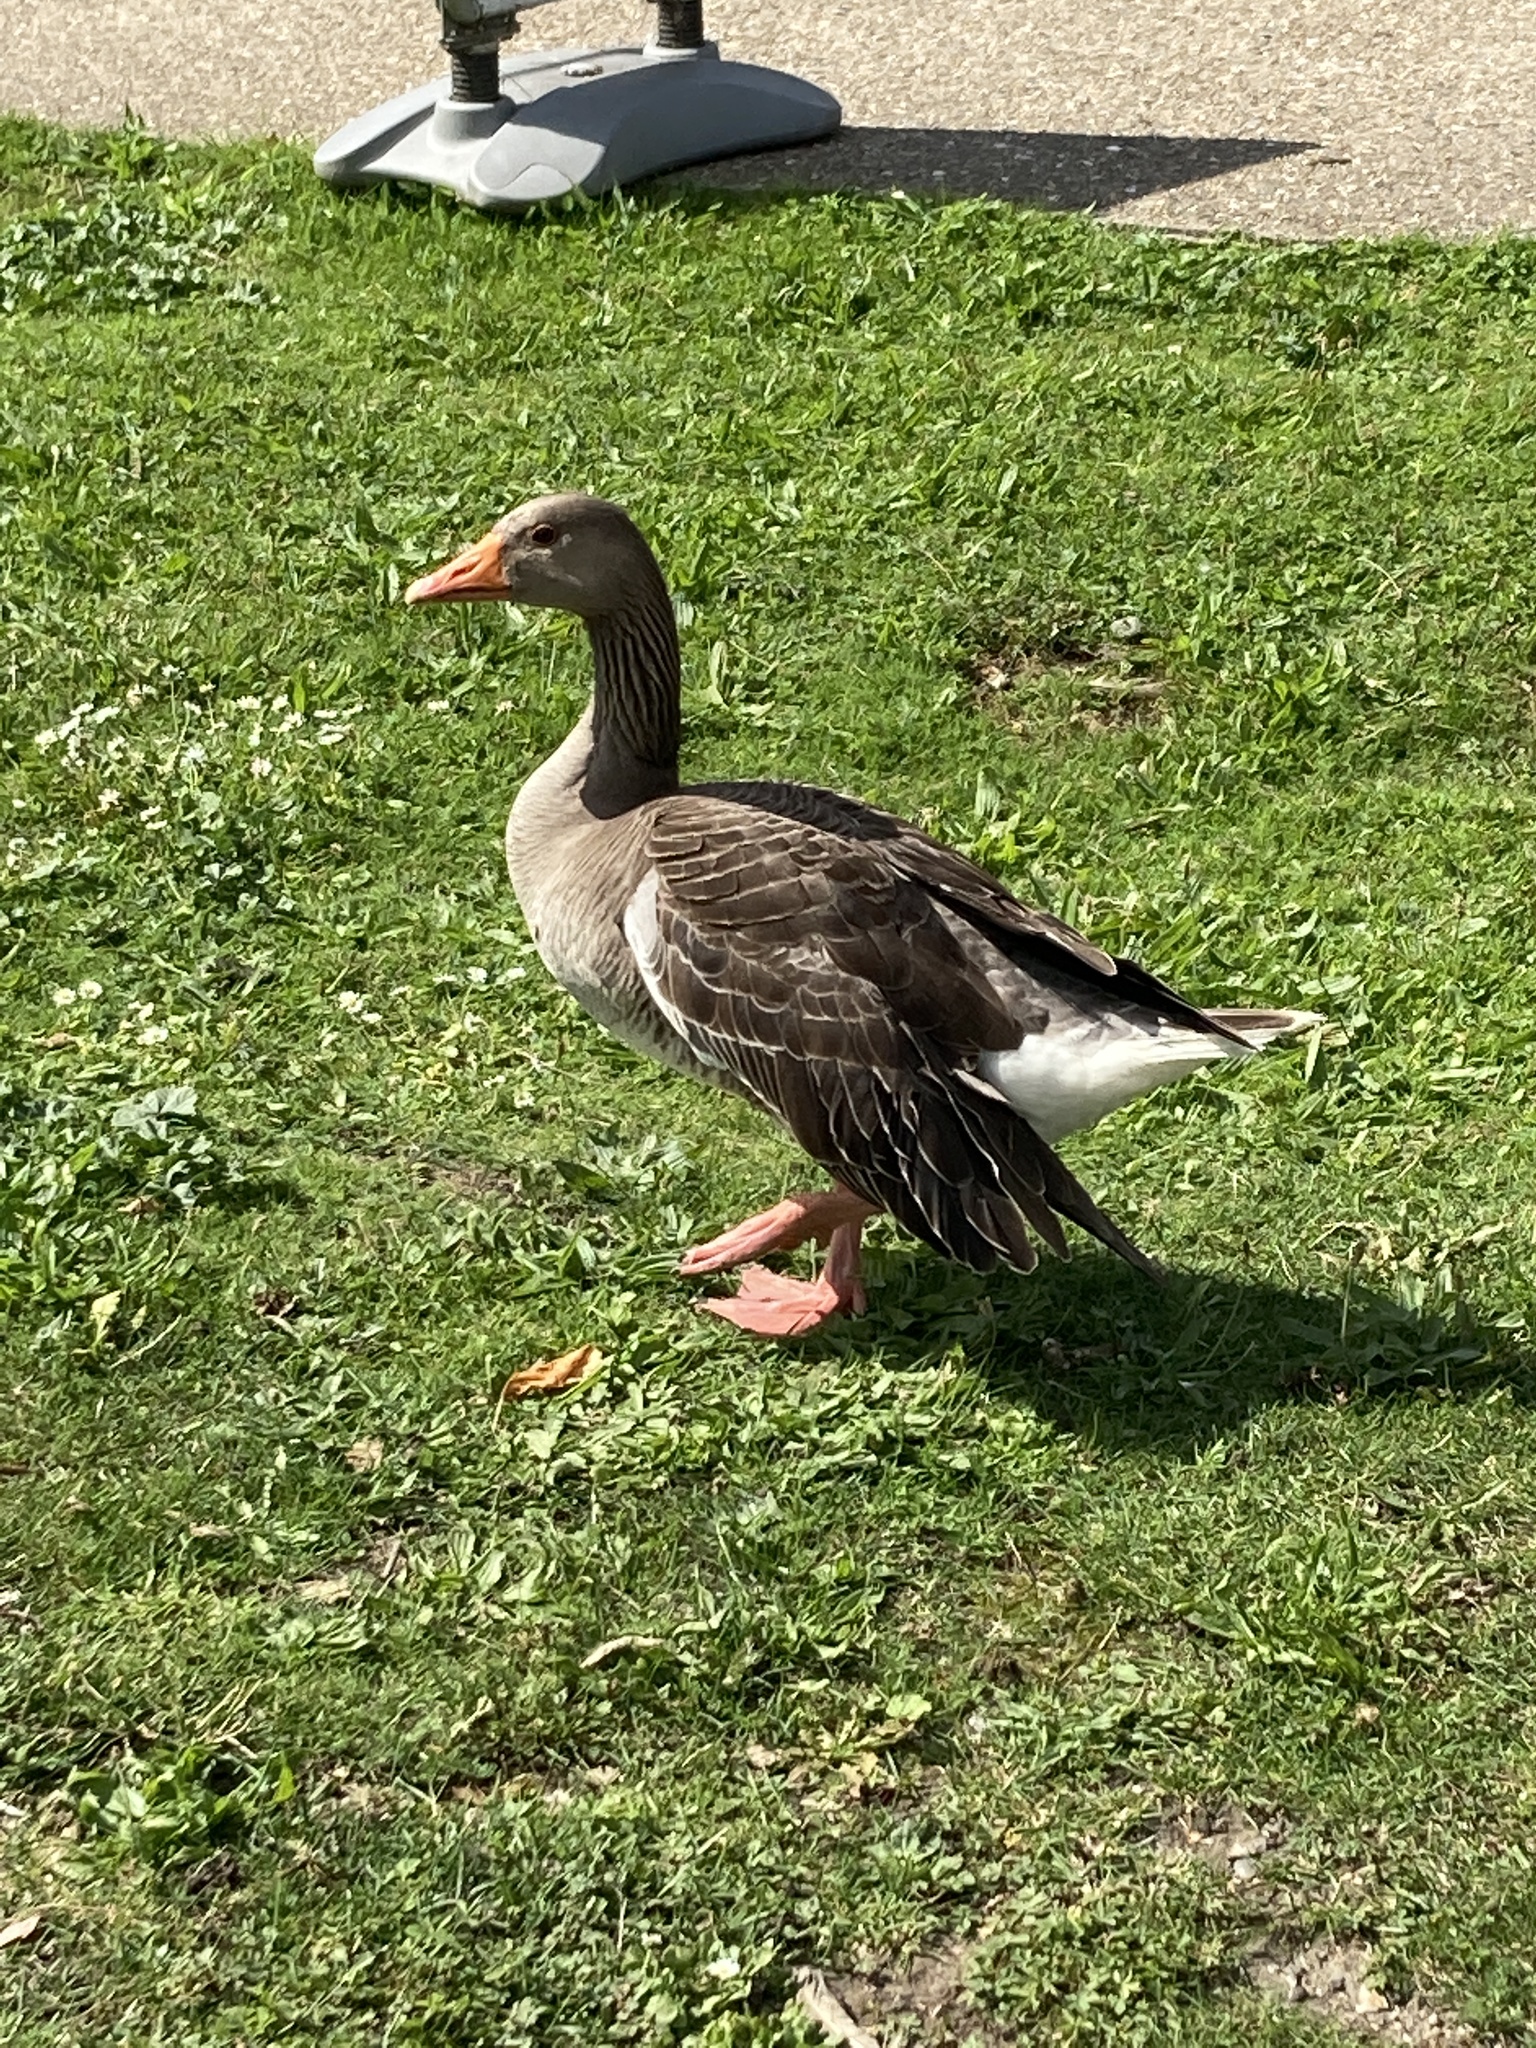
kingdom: Animalia
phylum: Chordata
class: Aves
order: Anseriformes
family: Anatidae
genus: Anser
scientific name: Anser anser
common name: Greylag goose
